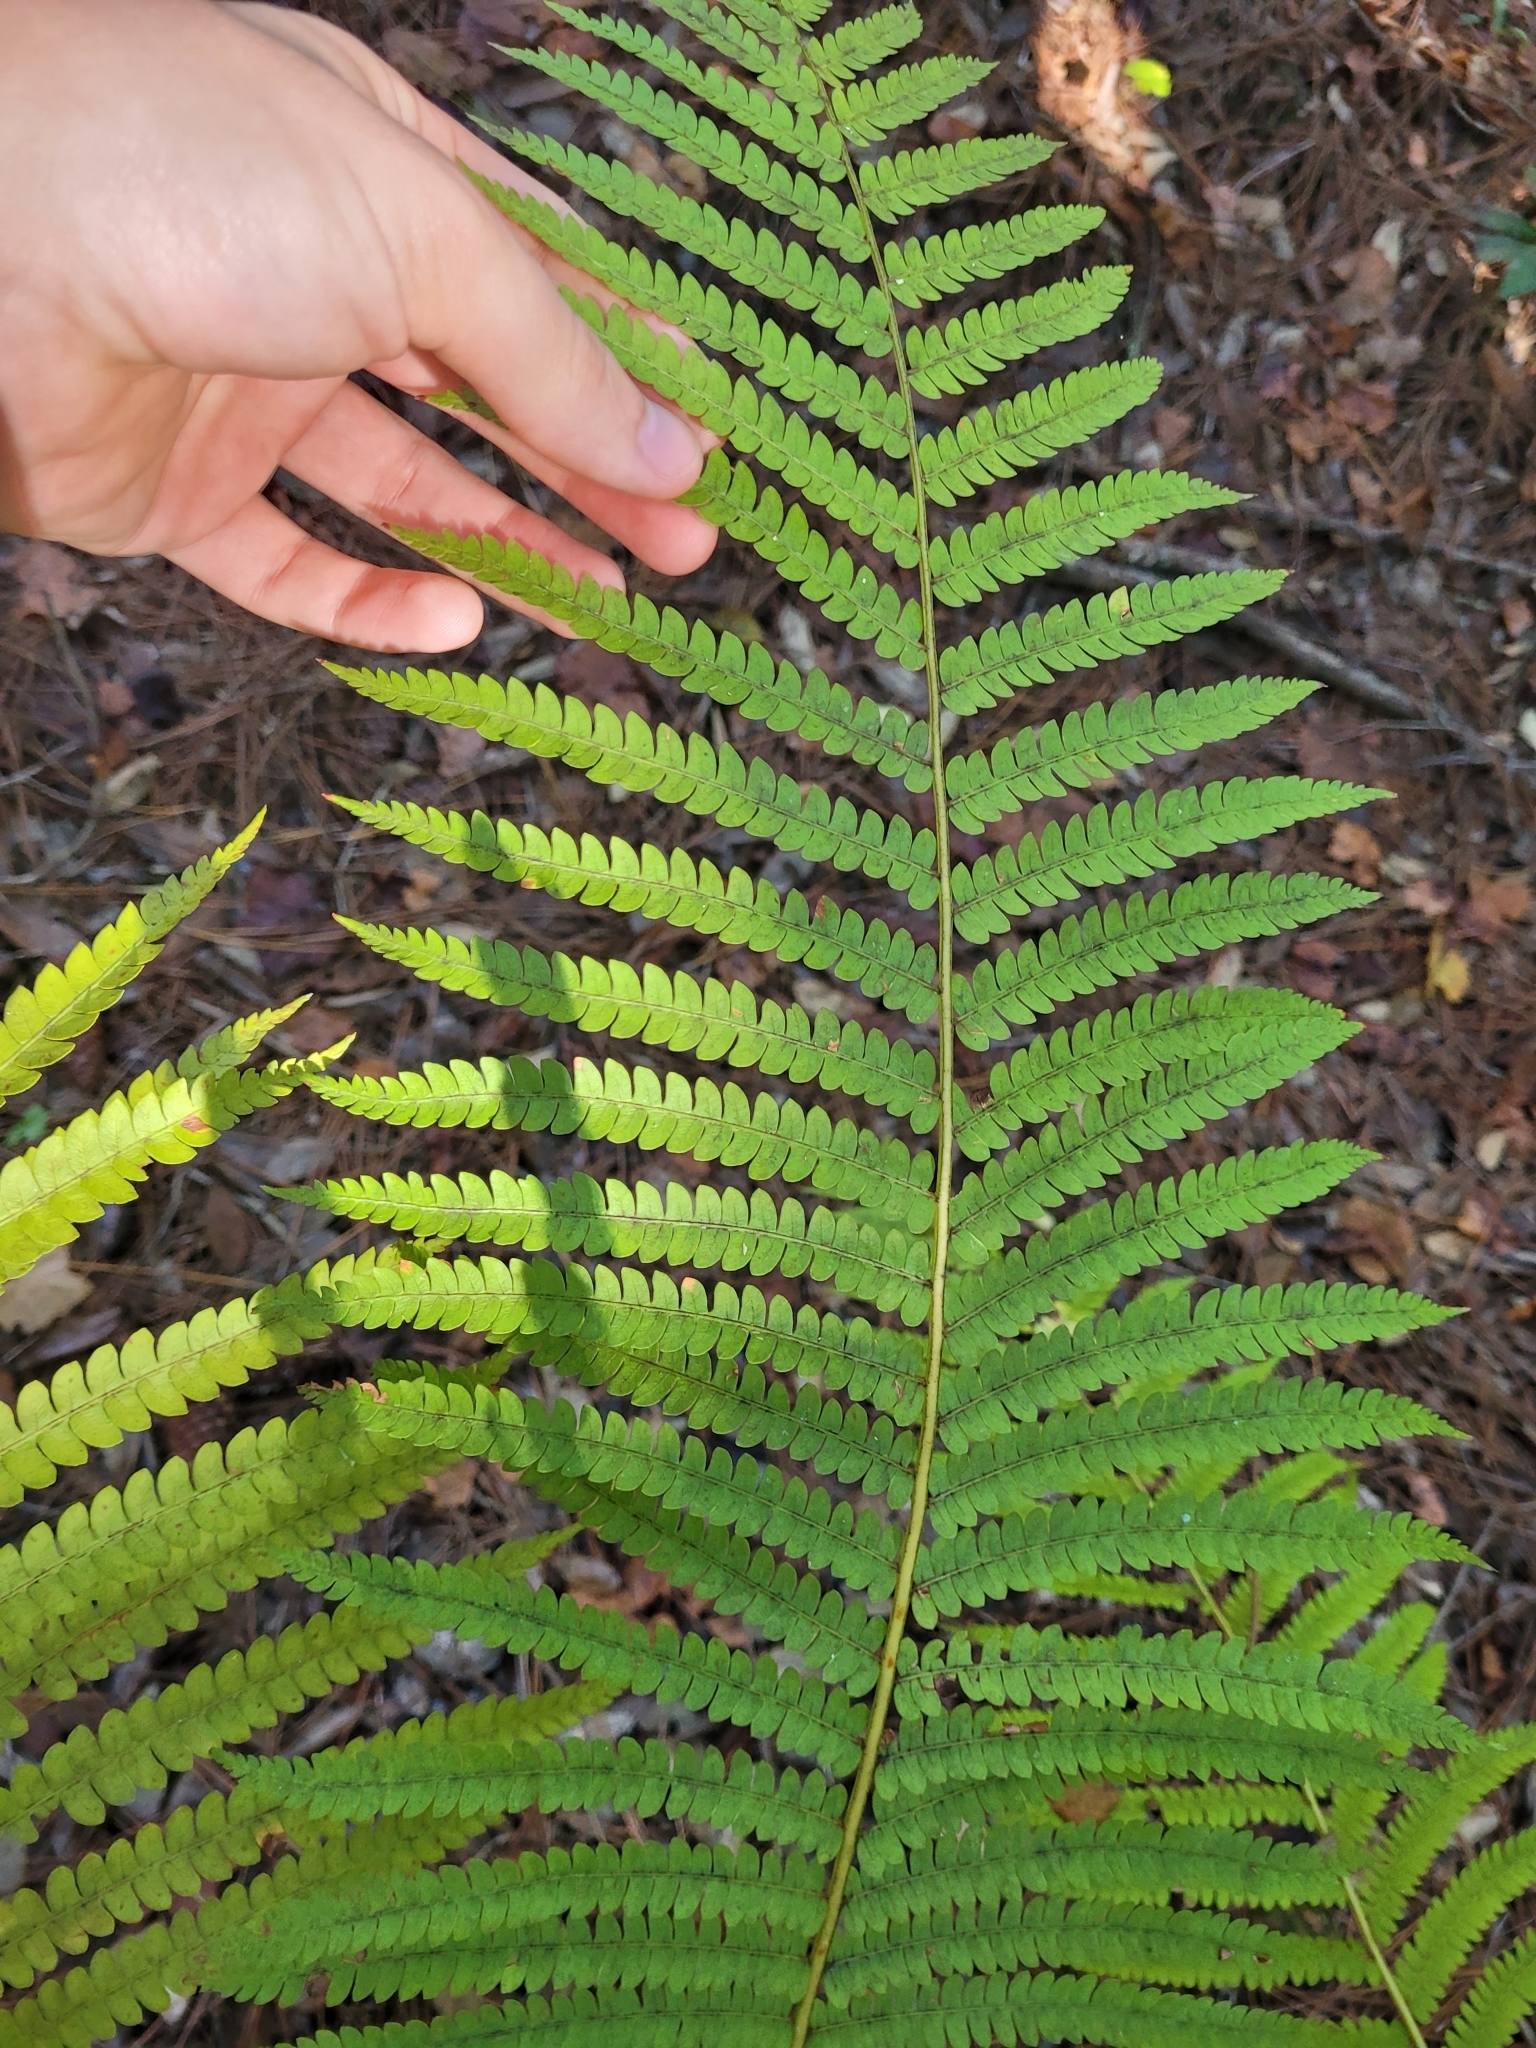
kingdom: Plantae
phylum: Tracheophyta
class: Polypodiopsida
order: Osmundales
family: Osmundaceae
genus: Osmundastrum
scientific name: Osmundastrum cinnamomeum
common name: Cinnamon fern
